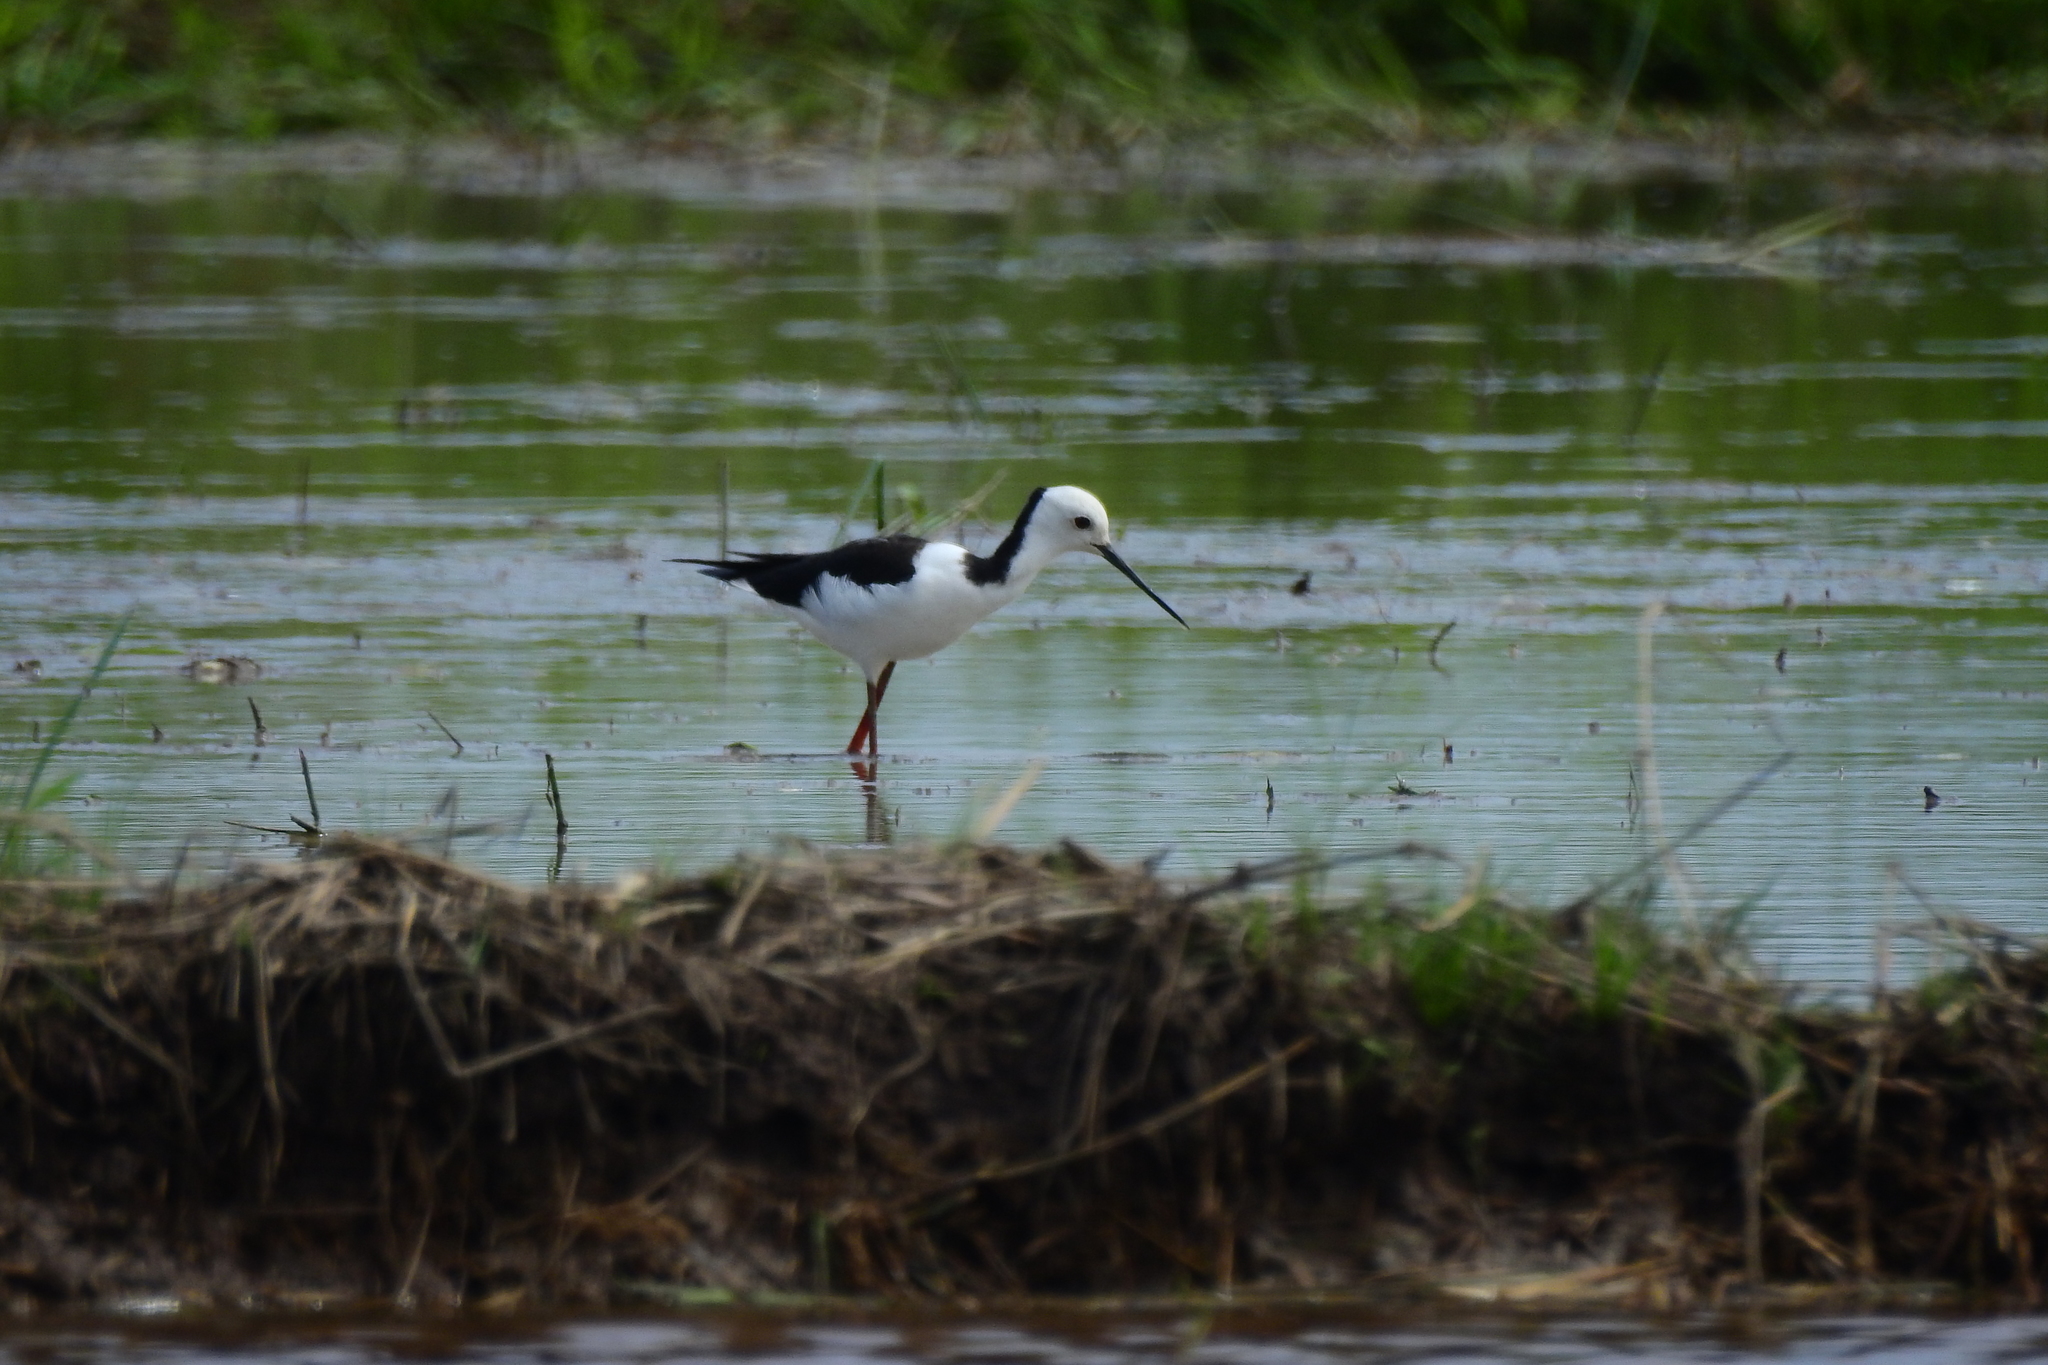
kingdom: Animalia
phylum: Chordata
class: Aves
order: Charadriiformes
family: Recurvirostridae
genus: Himantopus
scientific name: Himantopus leucocephalus
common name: White-headed stilt
